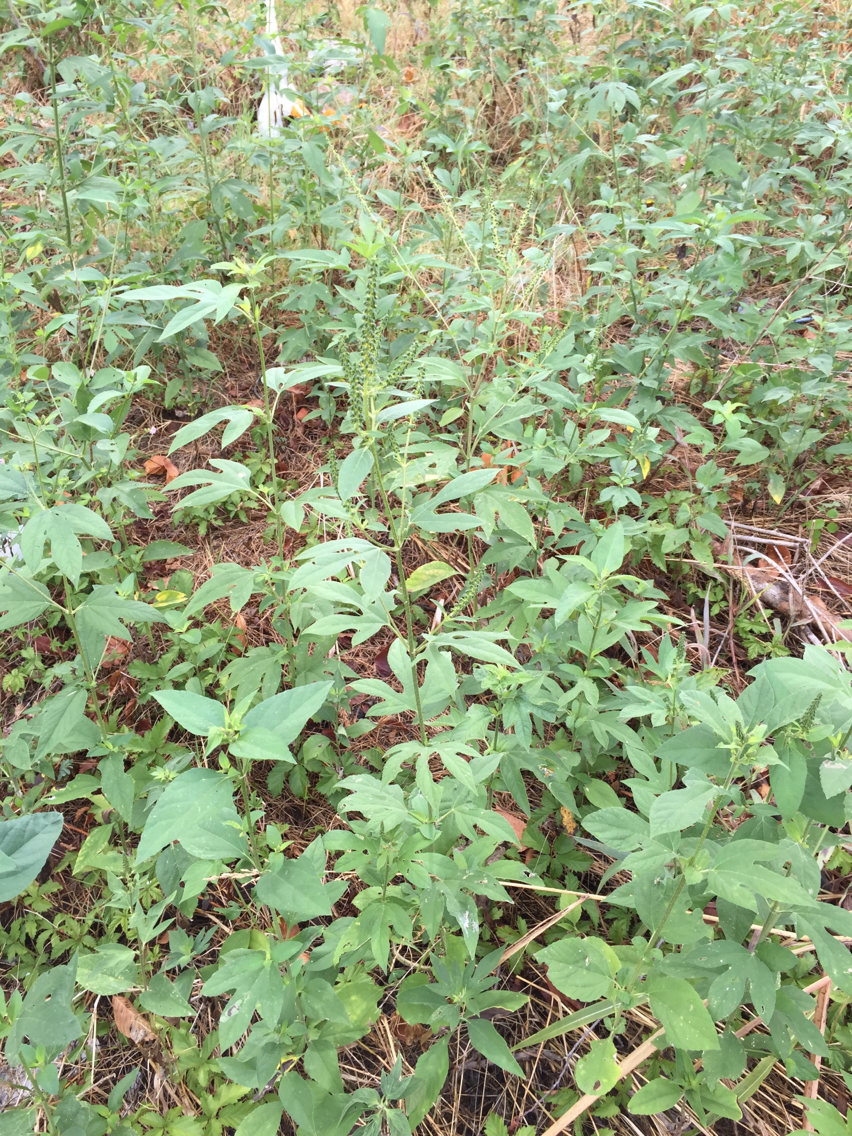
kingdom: Plantae
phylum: Tracheophyta
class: Magnoliopsida
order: Asterales
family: Asteraceae
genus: Ambrosia
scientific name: Ambrosia trifida
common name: Giant ragweed
